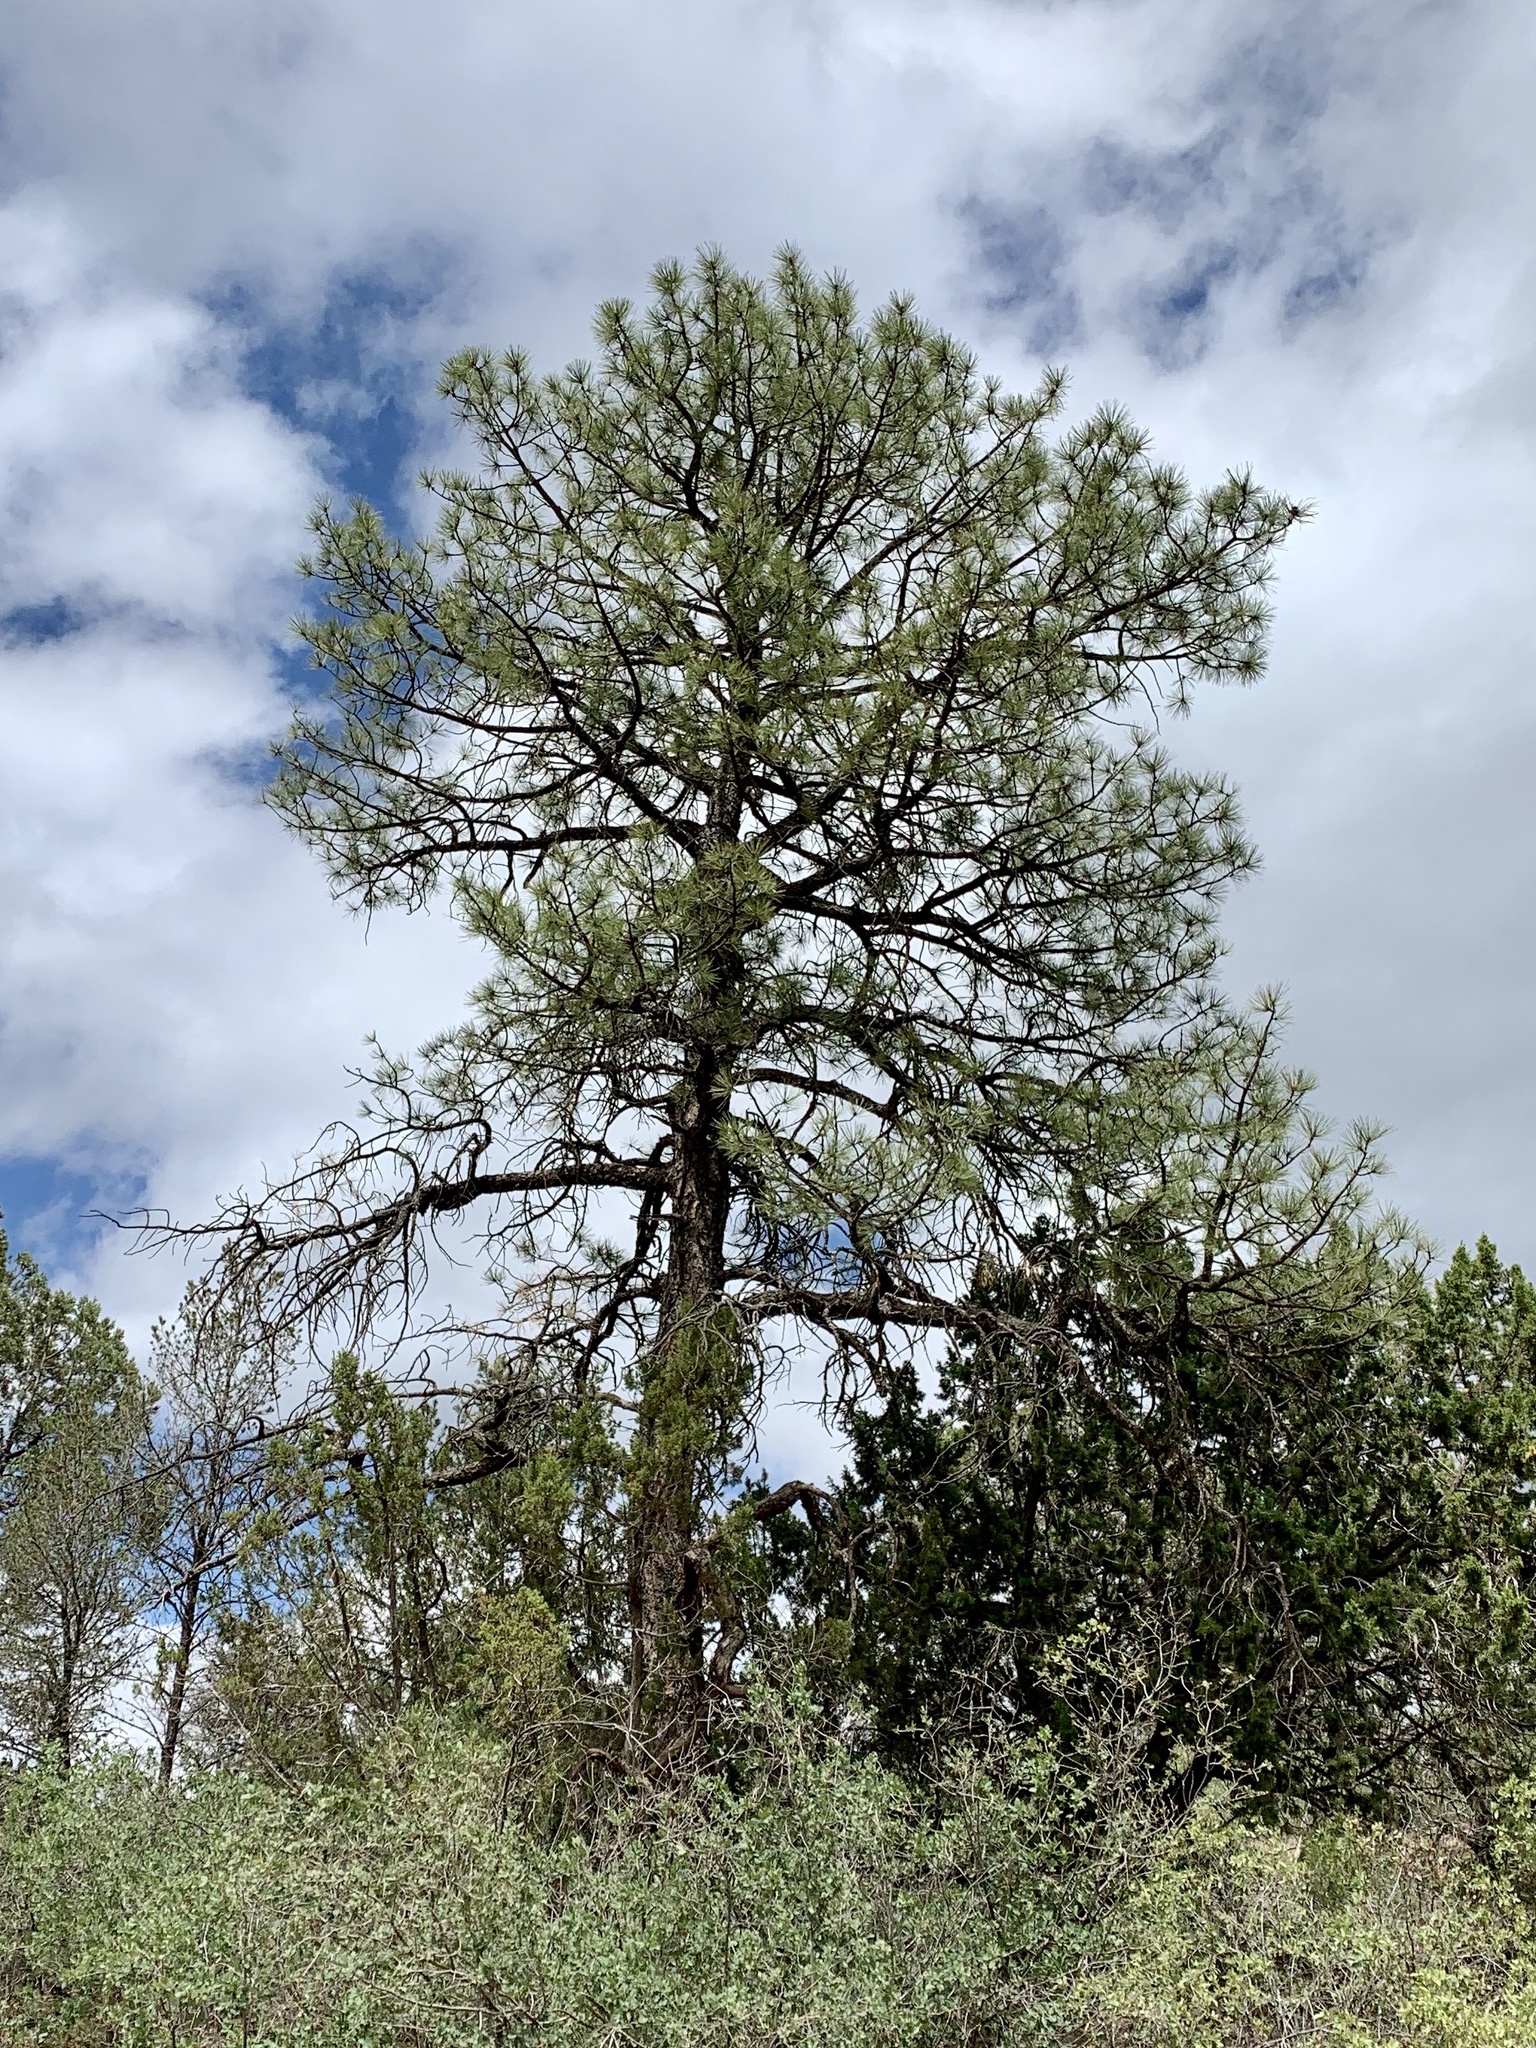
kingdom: Plantae
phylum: Tracheophyta
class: Pinopsida
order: Pinales
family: Pinaceae
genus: Pinus
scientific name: Pinus ponderosa
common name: Western yellow-pine
